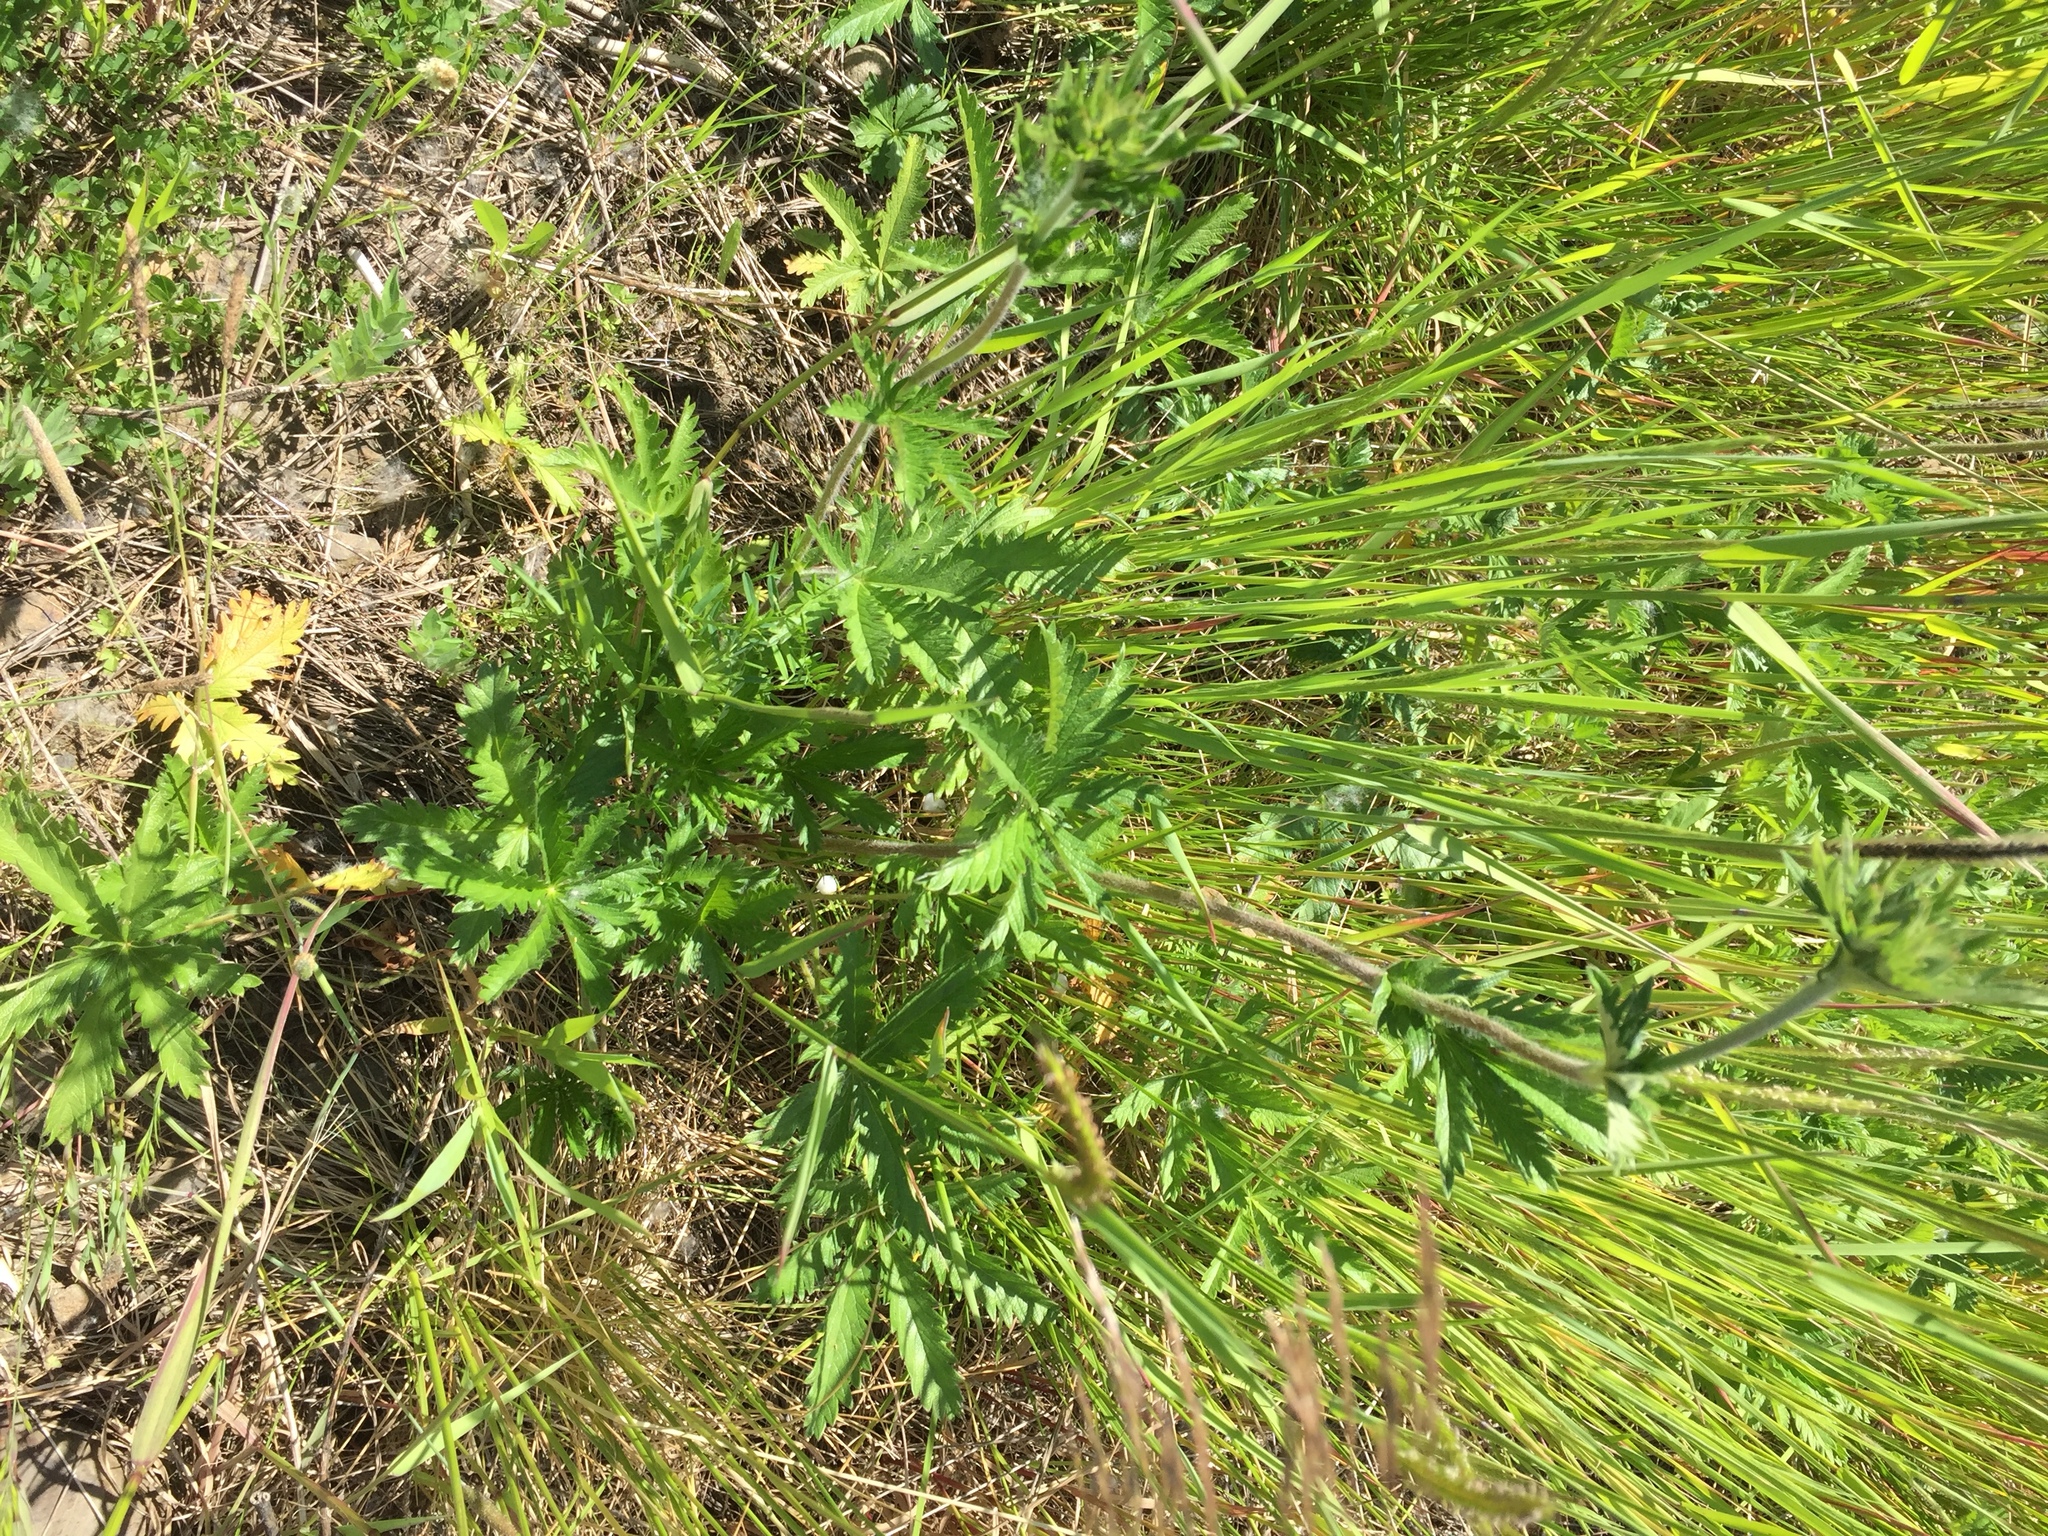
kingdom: Plantae
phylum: Tracheophyta
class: Magnoliopsida
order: Rosales
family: Rosaceae
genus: Potentilla
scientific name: Potentilla recta
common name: Sulphur cinquefoil
